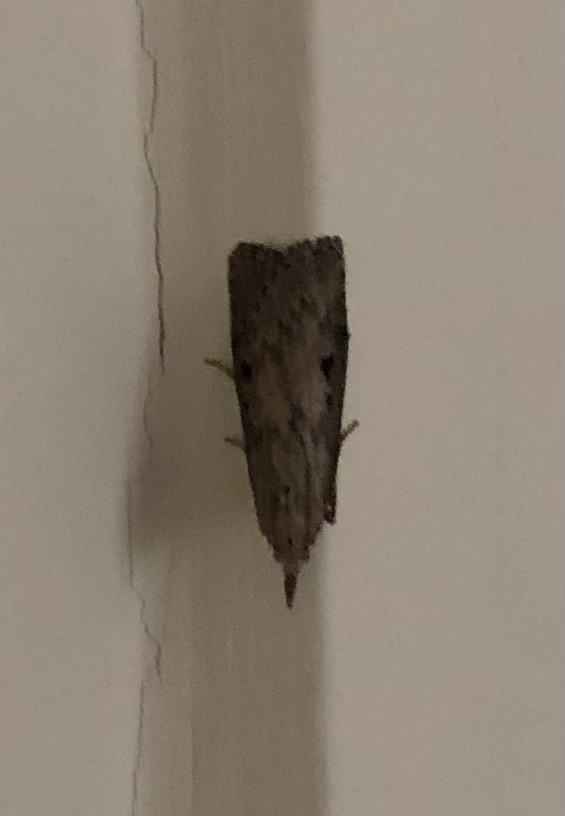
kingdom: Animalia
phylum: Arthropoda
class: Insecta
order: Lepidoptera
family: Pyralidae
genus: Aphomia
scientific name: Aphomia sociella
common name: Bee moth
